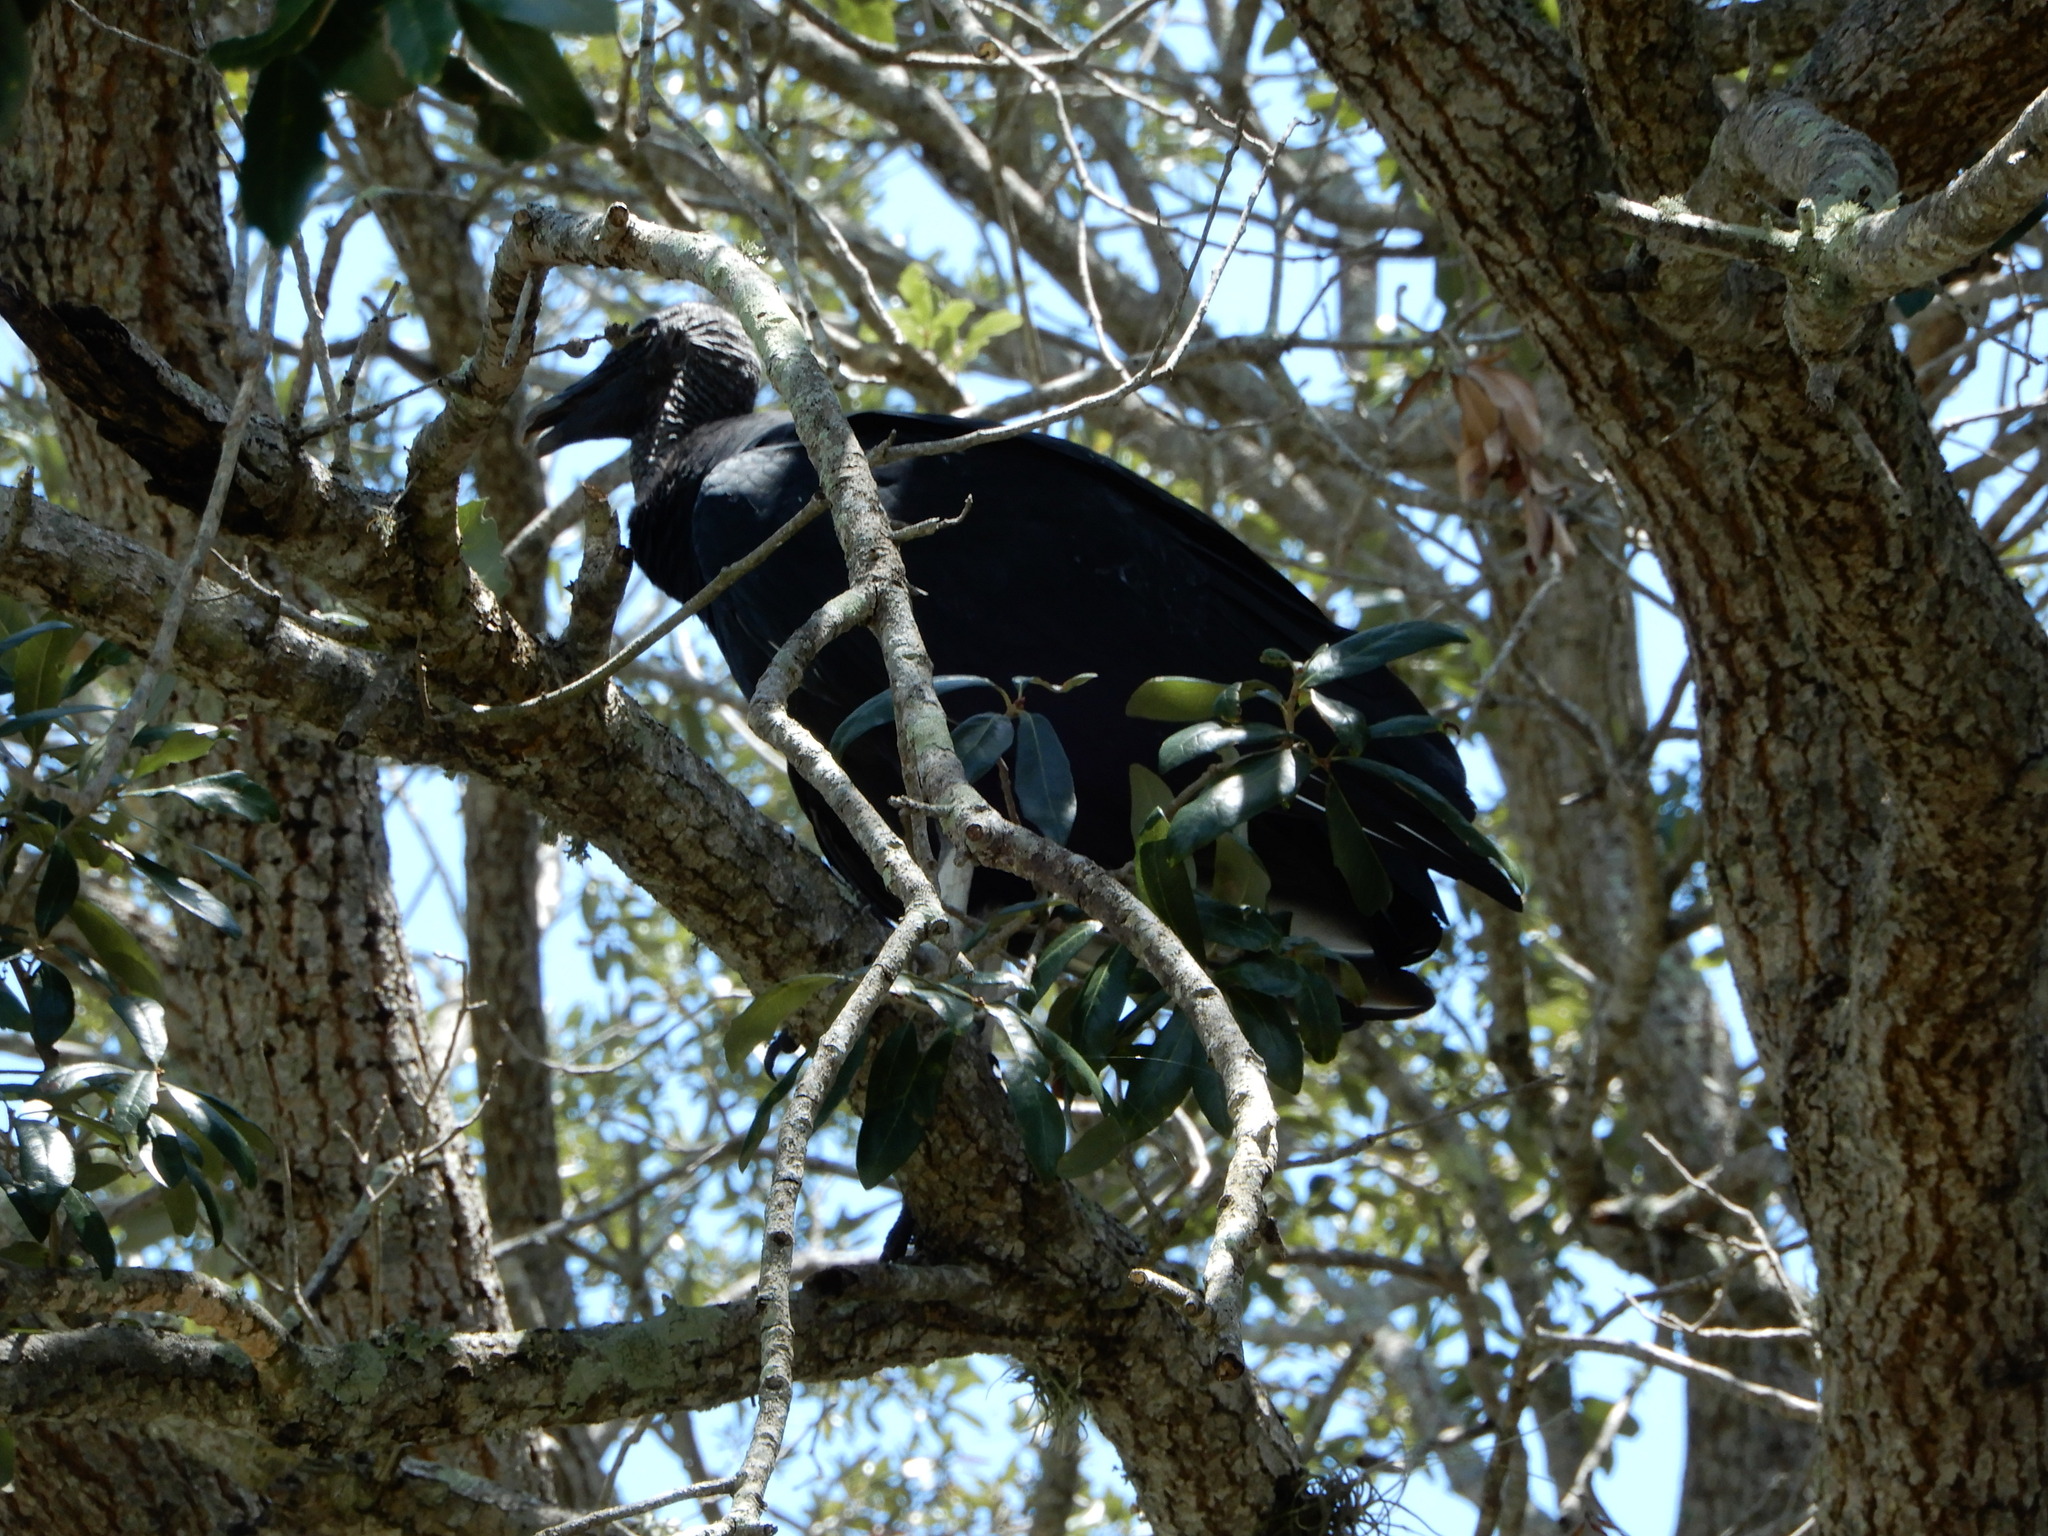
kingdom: Animalia
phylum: Chordata
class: Aves
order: Accipitriformes
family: Cathartidae
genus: Coragyps
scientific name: Coragyps atratus
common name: Black vulture
